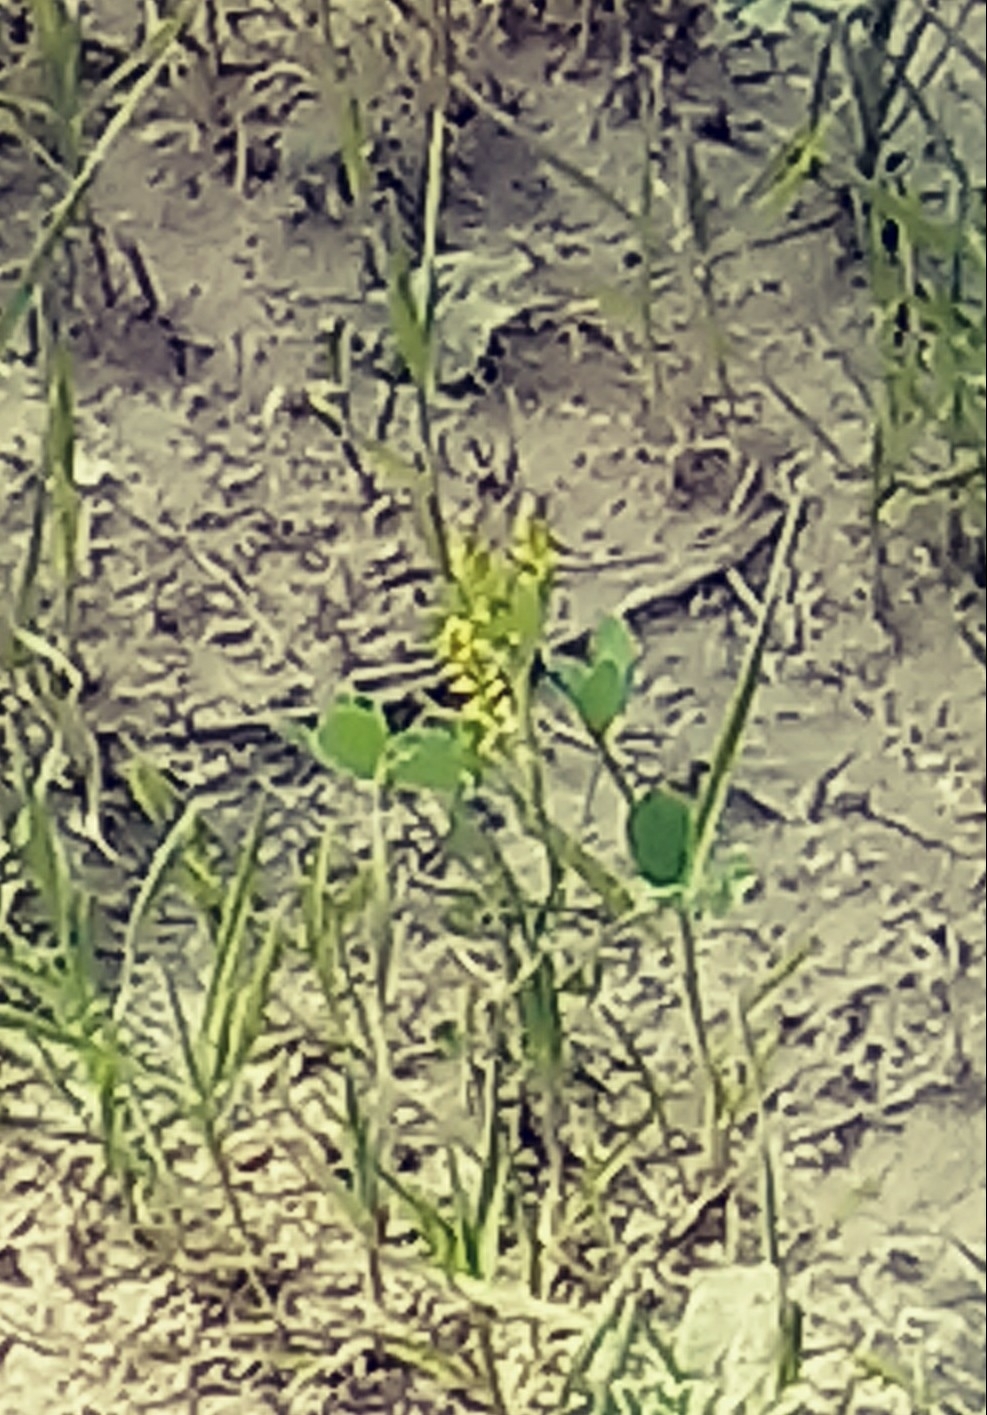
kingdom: Plantae
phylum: Tracheophyta
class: Magnoliopsida
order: Fabales
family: Fabaceae
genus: Melilotus
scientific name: Melilotus indicus
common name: Small melilot
